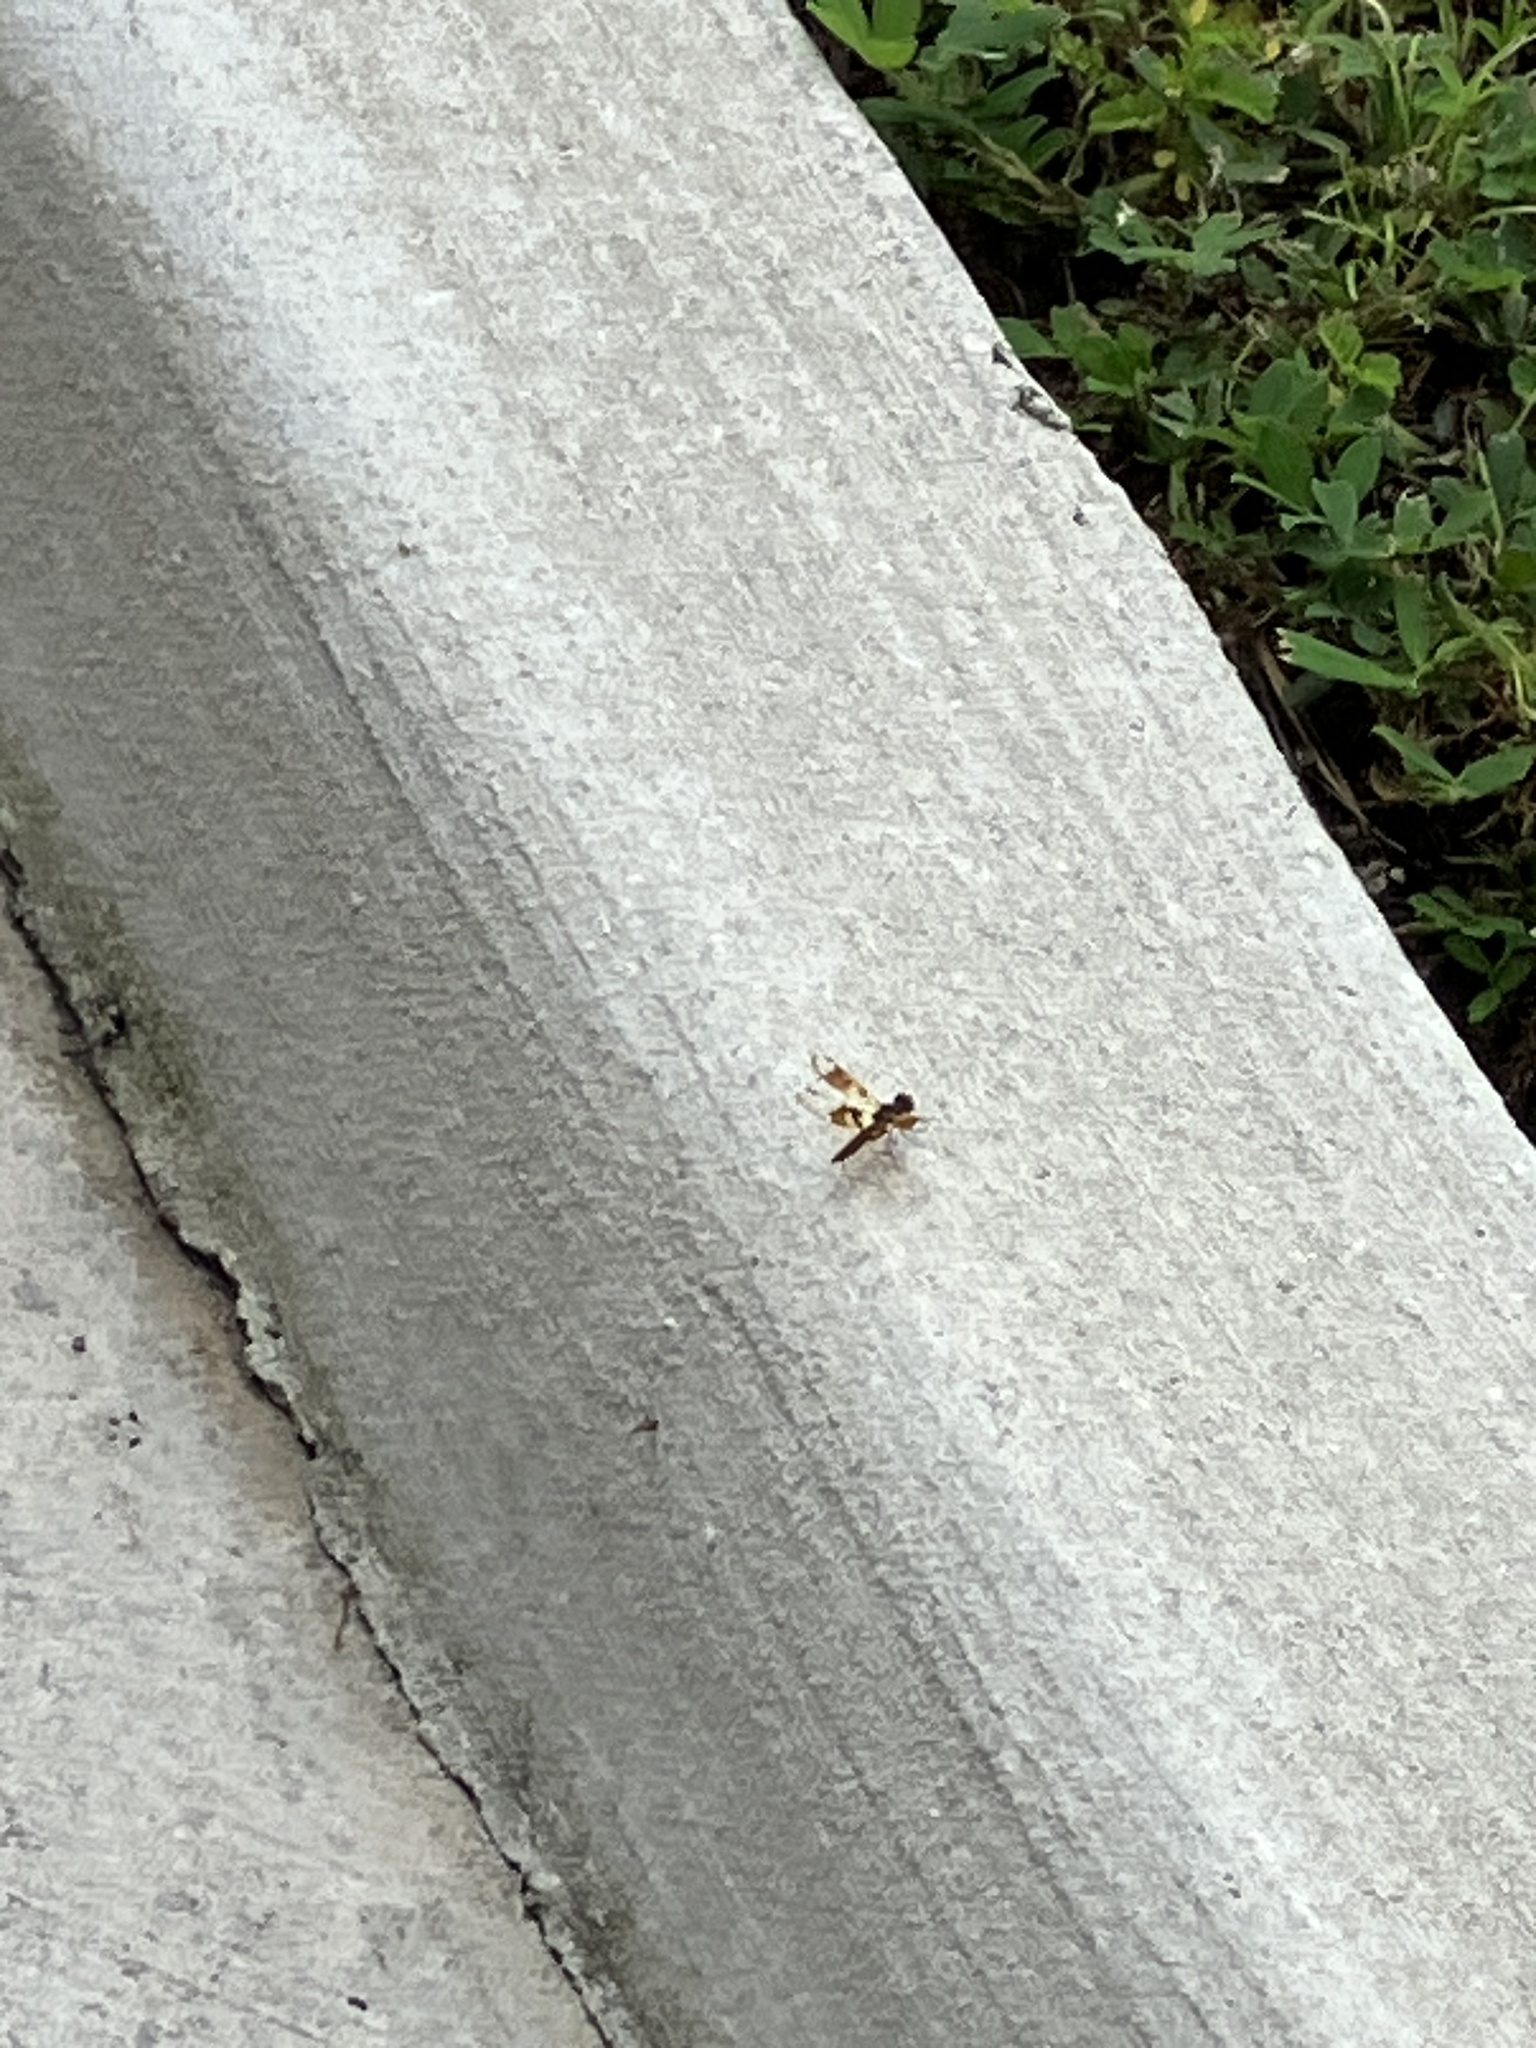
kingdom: Animalia
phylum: Arthropoda
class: Insecta
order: Odonata
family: Libellulidae
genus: Perithemis
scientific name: Perithemis tenera
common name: Eastern amberwing
